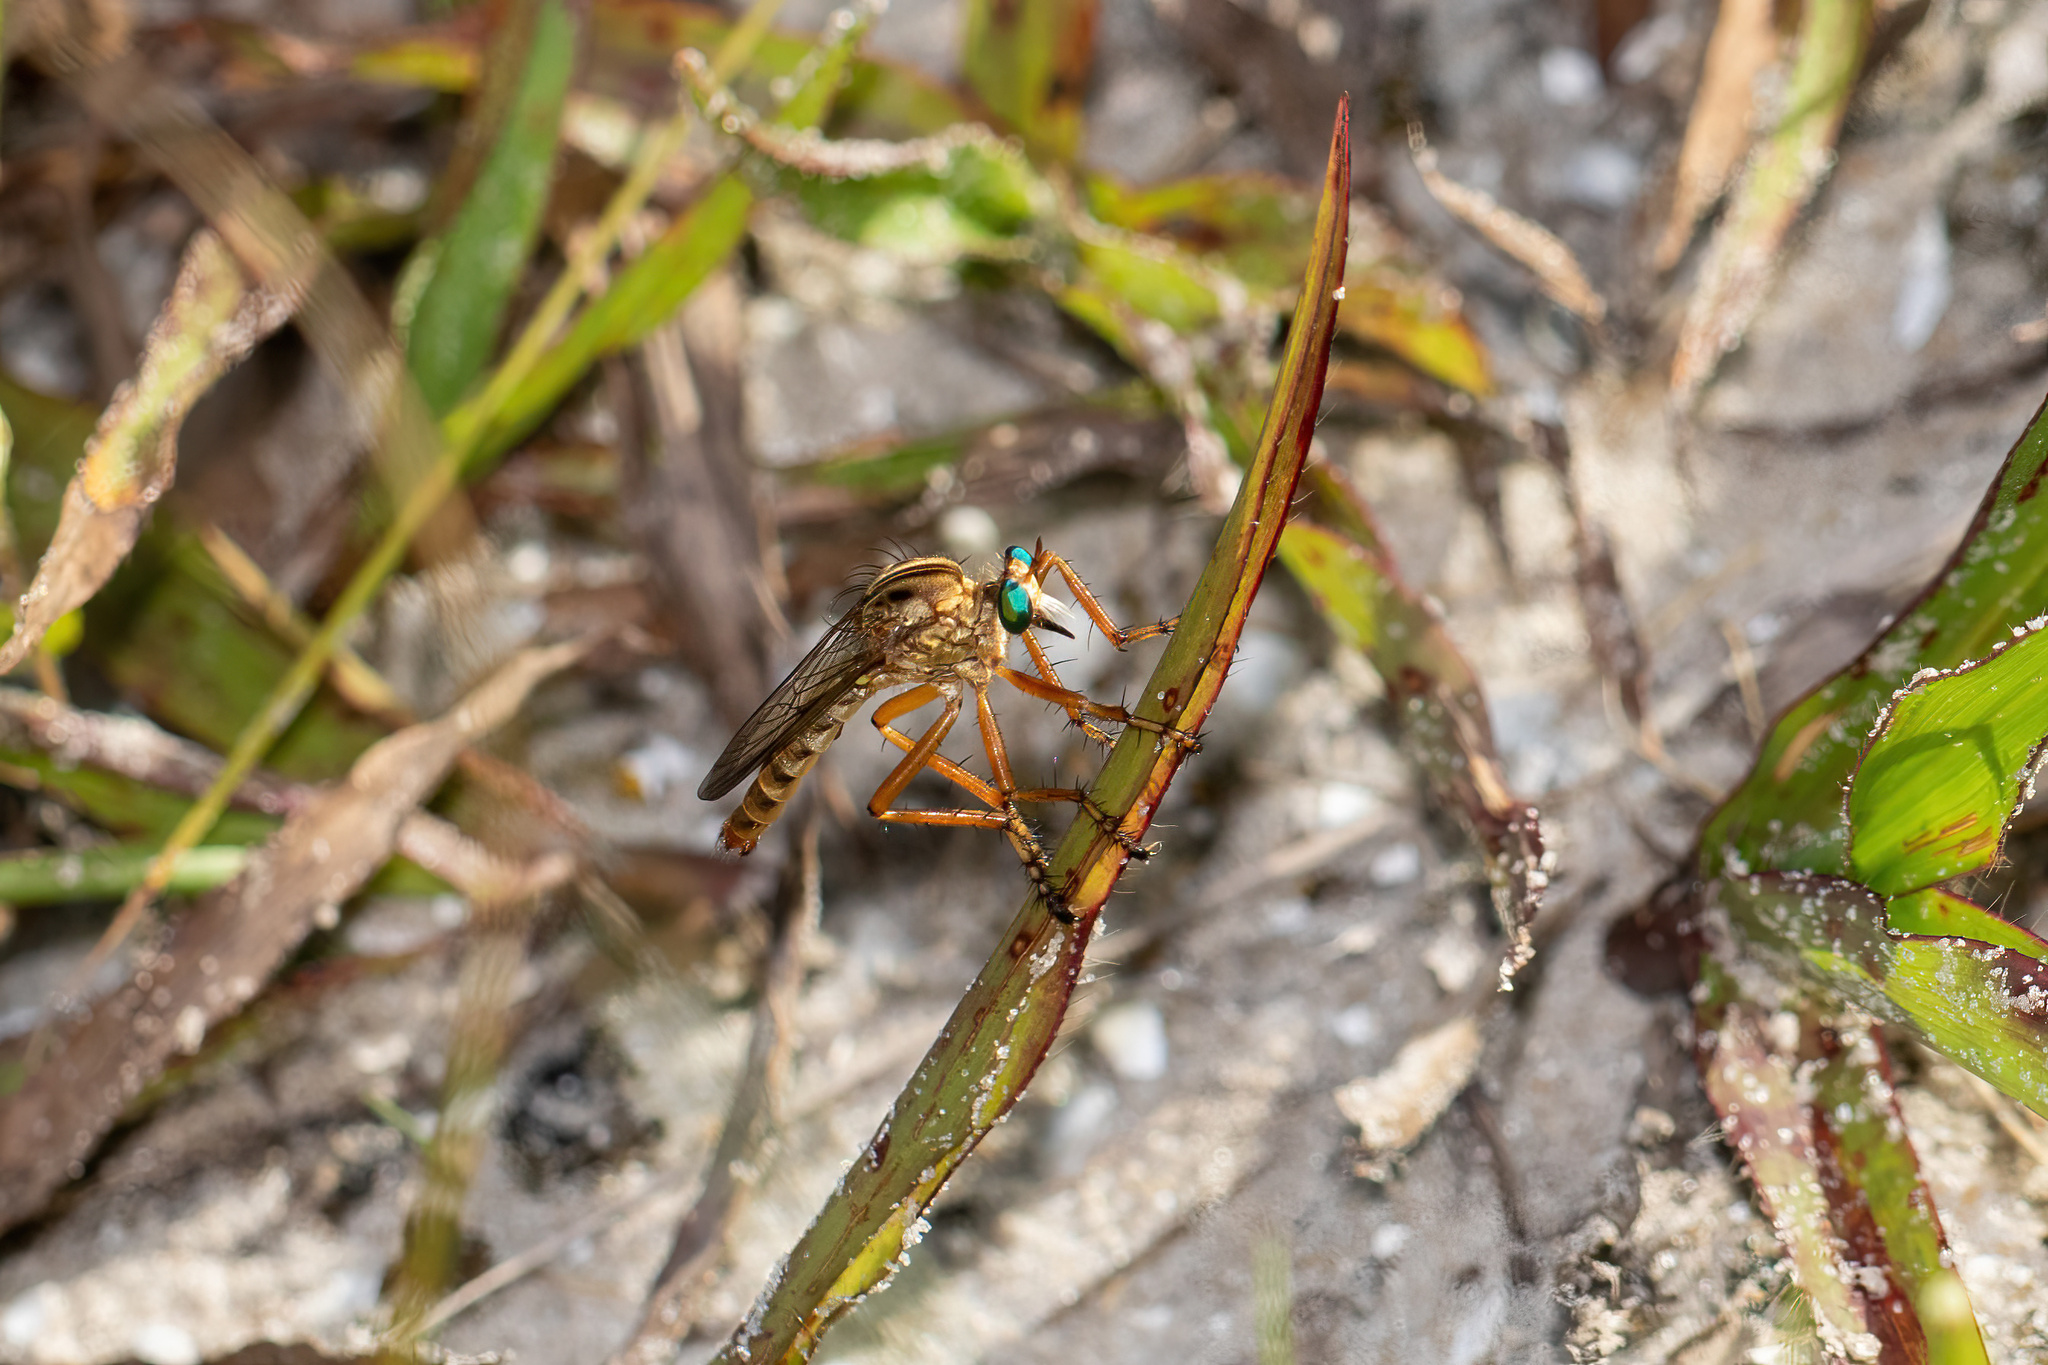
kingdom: Animalia
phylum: Arthropoda
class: Insecta
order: Diptera
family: Asilidae
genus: Diogmites
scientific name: Diogmites salutans
